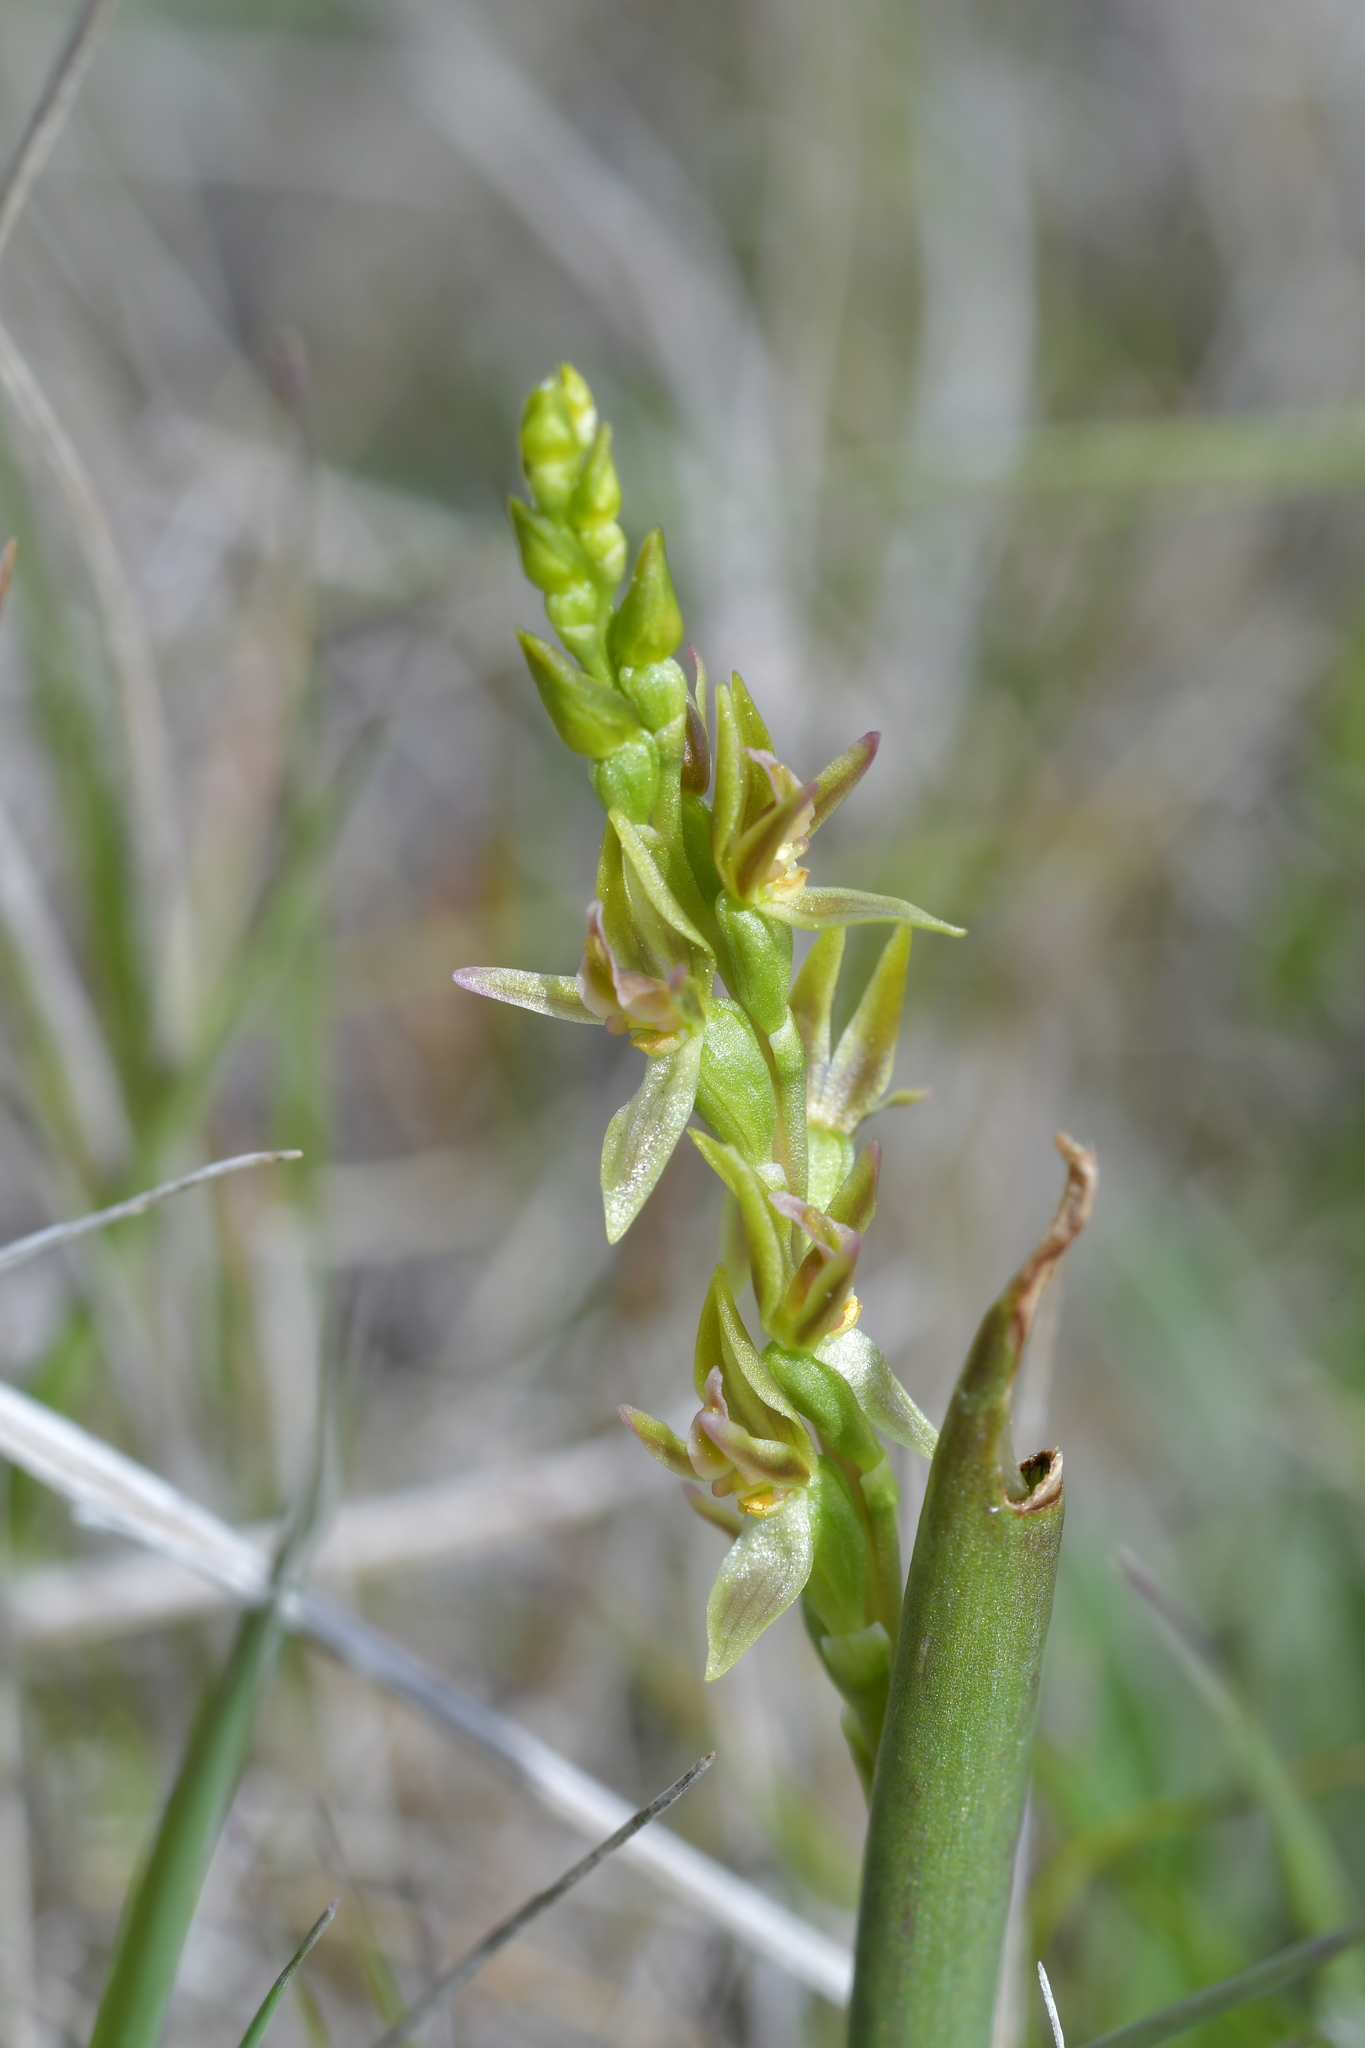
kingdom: Plantae
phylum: Tracheophyta
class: Liliopsida
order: Asparagales
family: Orchidaceae
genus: Prasophyllum
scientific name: Prasophyllum colensoi
